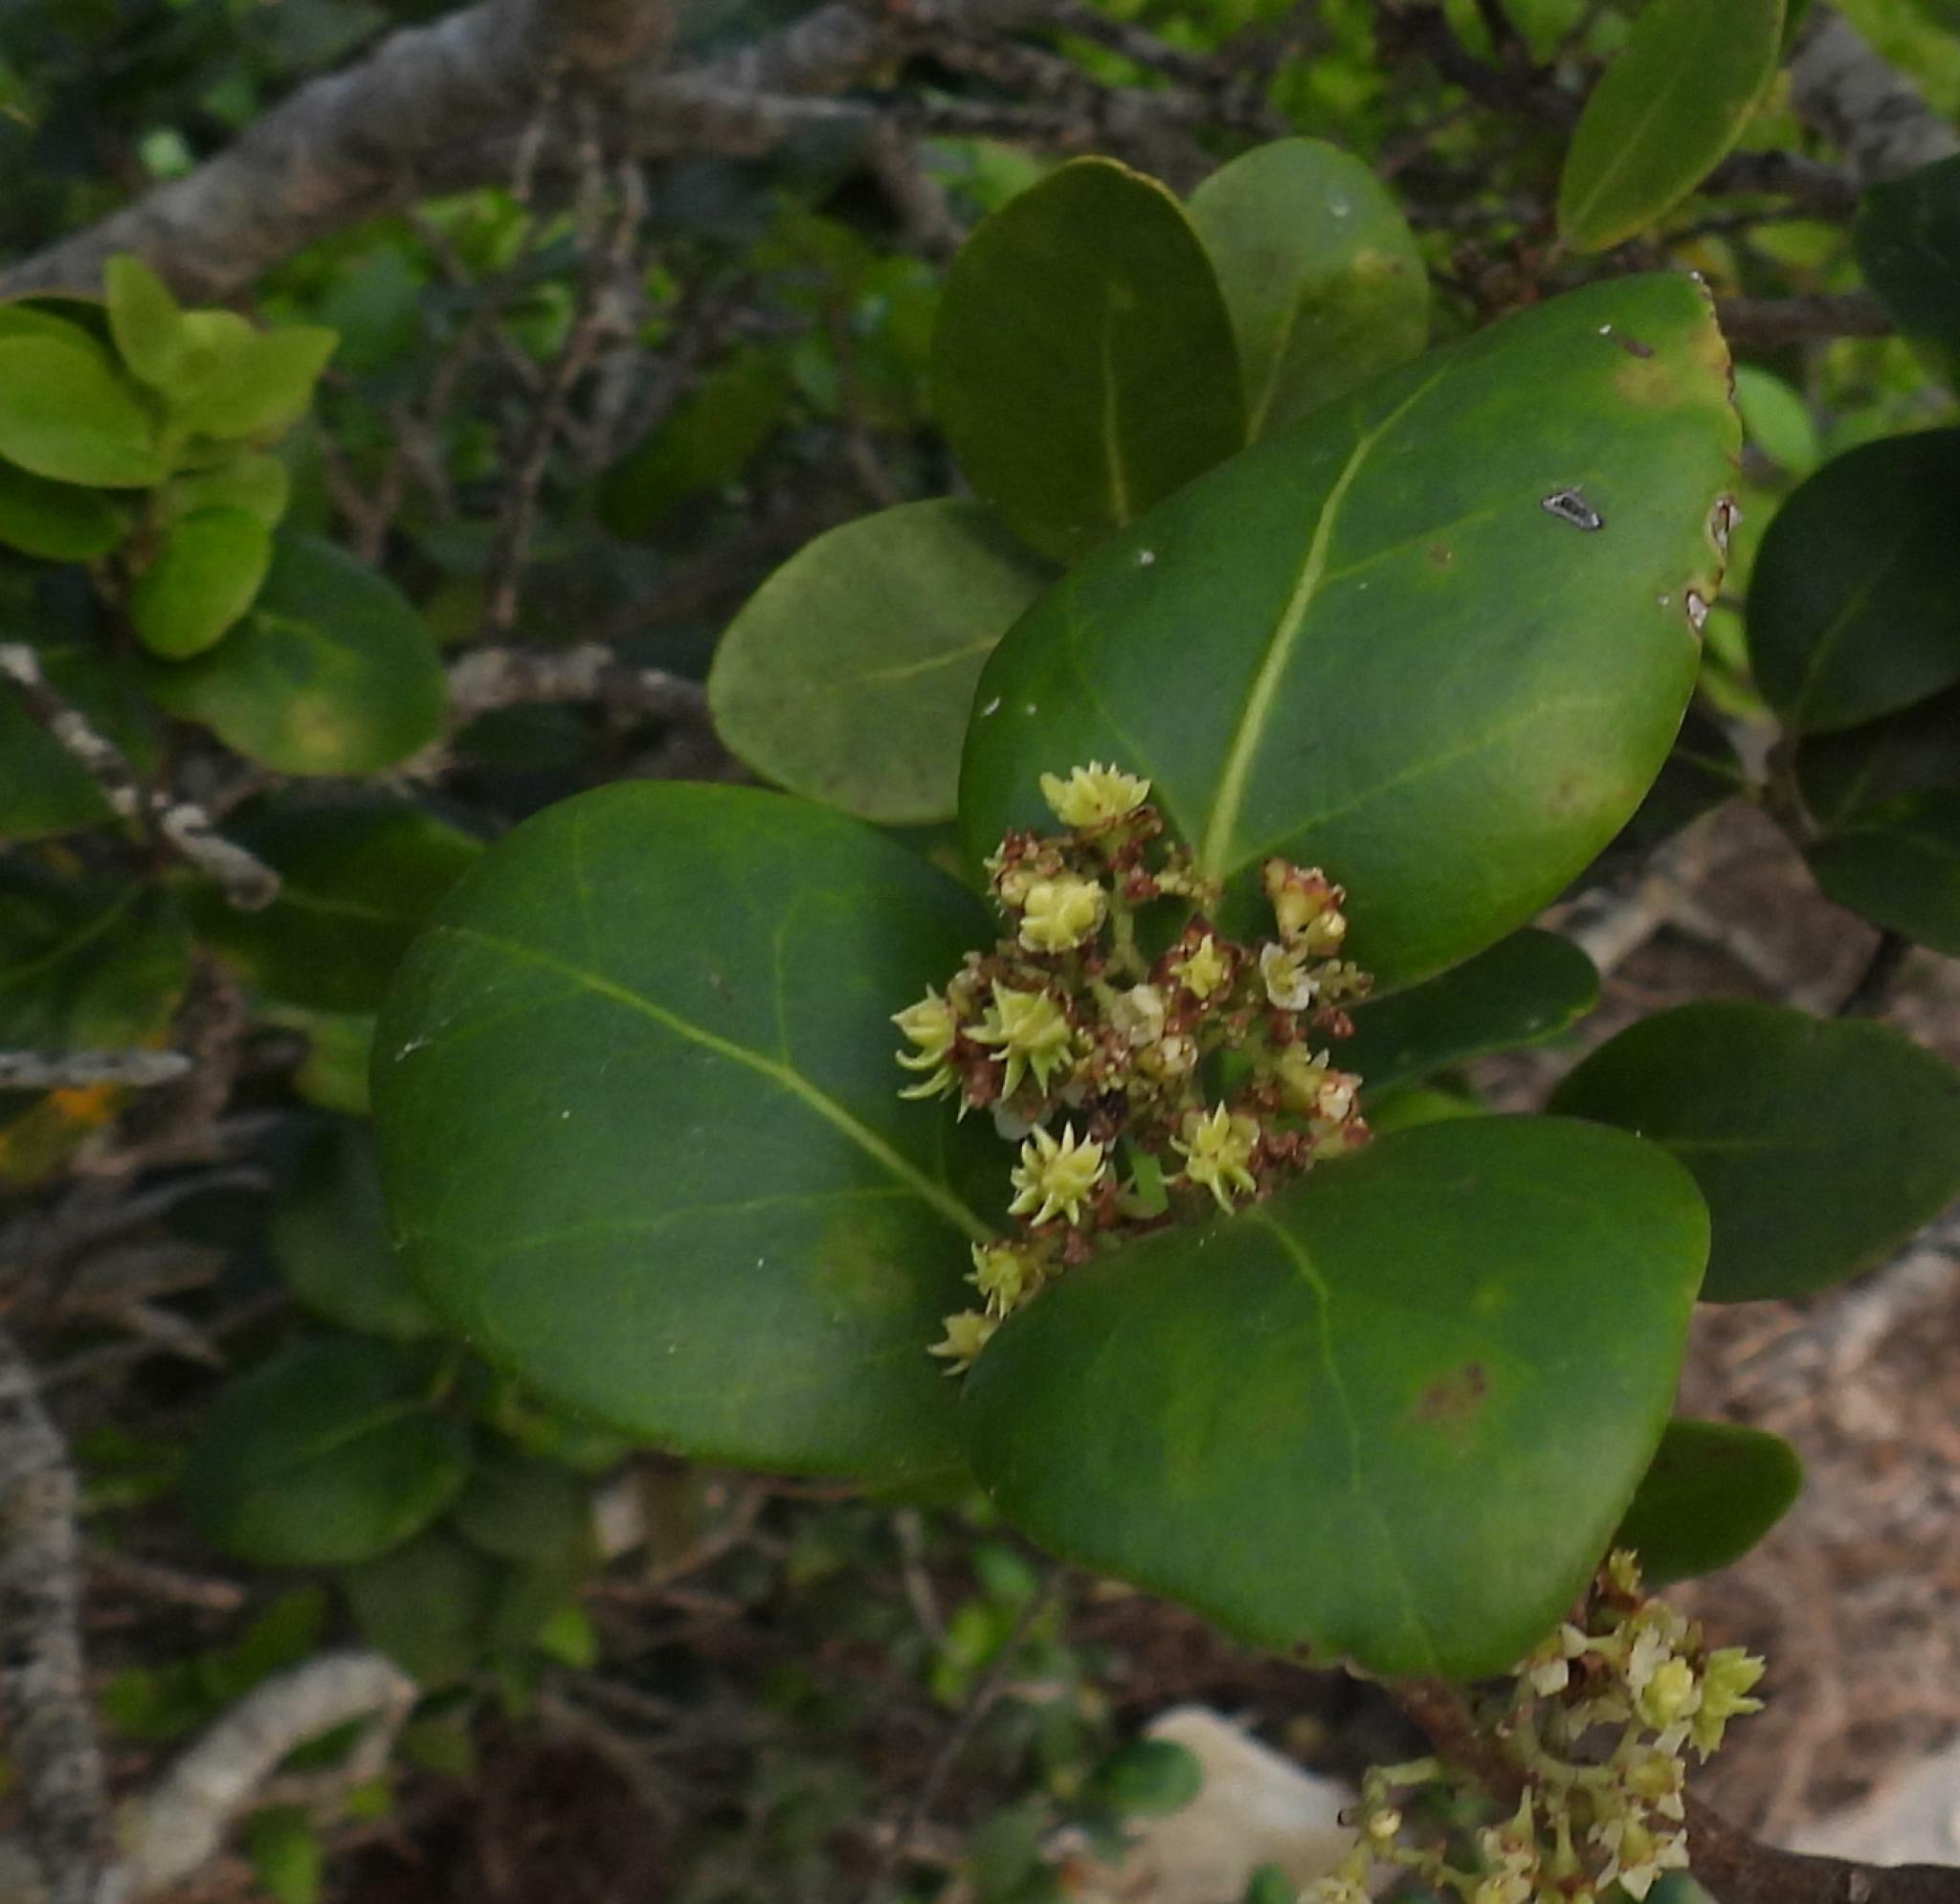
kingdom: Plantae
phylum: Tracheophyta
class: Magnoliopsida
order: Celastrales
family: Celastraceae
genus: Pterocelastrus
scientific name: Pterocelastrus tricuspidatus
